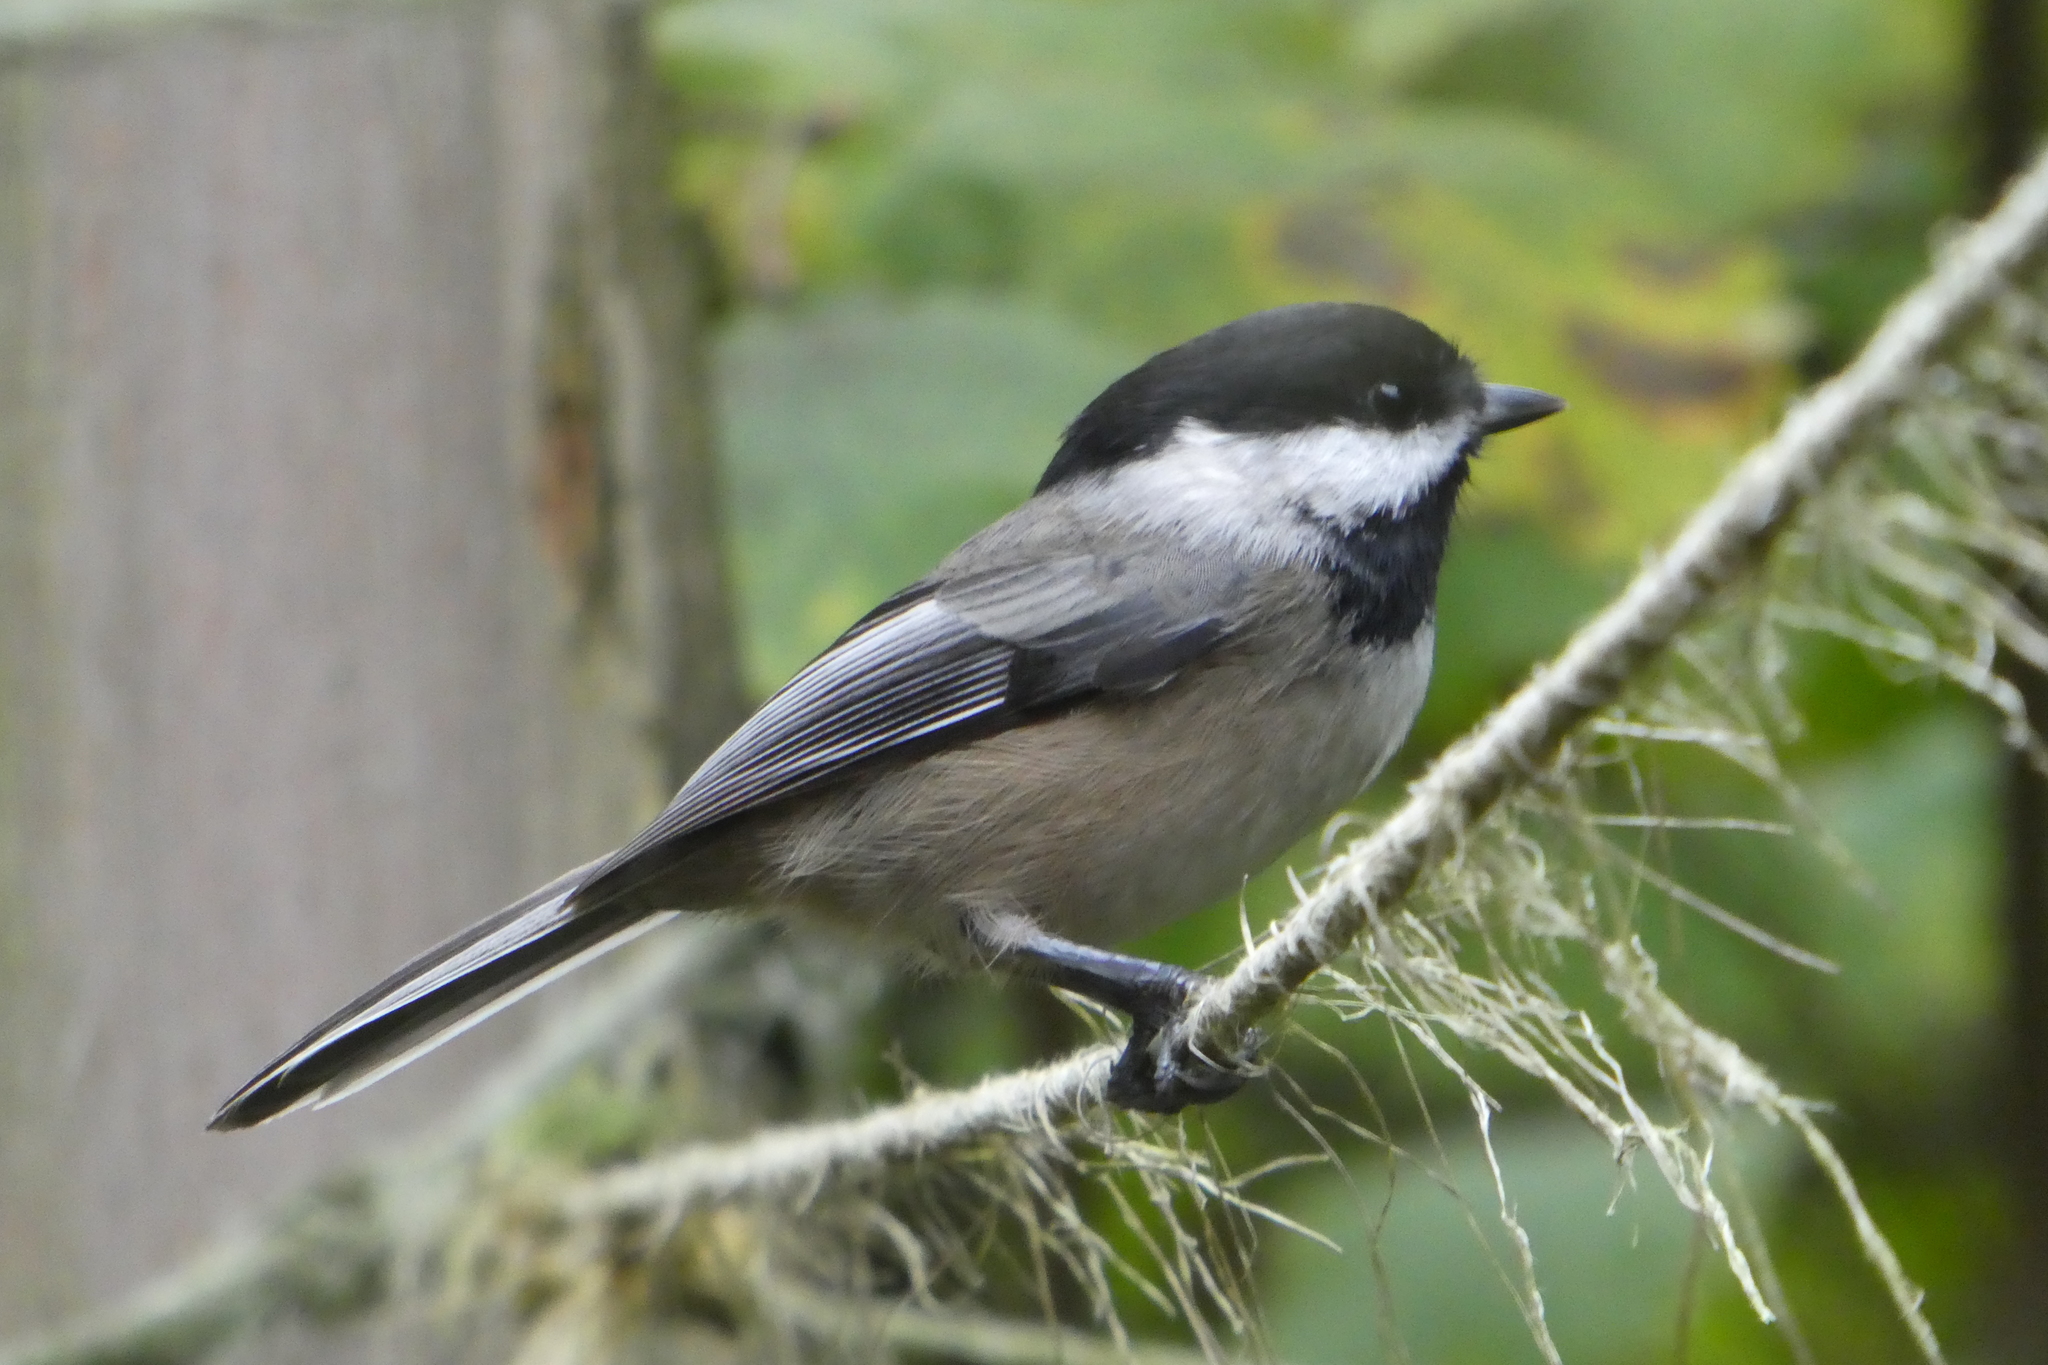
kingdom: Animalia
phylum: Chordata
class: Aves
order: Passeriformes
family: Paridae
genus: Poecile
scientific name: Poecile atricapillus
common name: Black-capped chickadee
